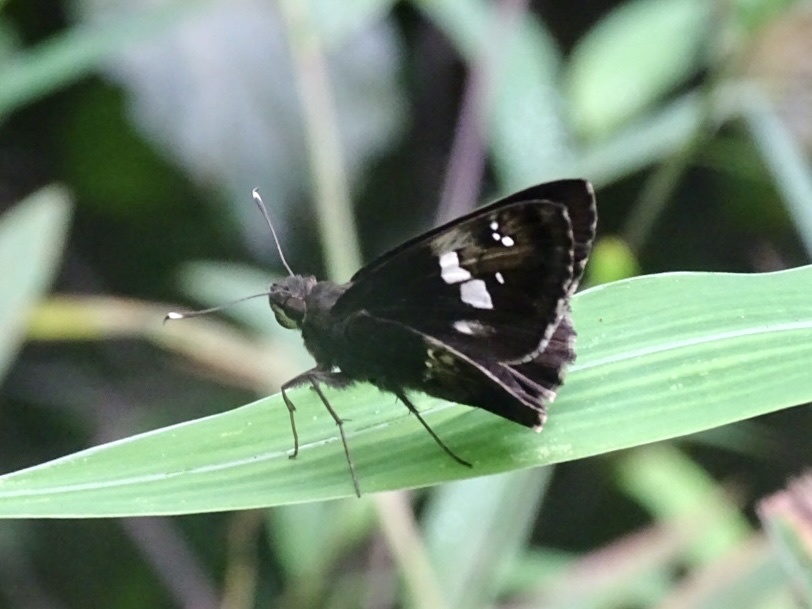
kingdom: Animalia
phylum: Arthropoda
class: Insecta
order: Lepidoptera
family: Hesperiidae
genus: Hyarotis
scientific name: Hyarotis adrastus
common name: Tree flitter
